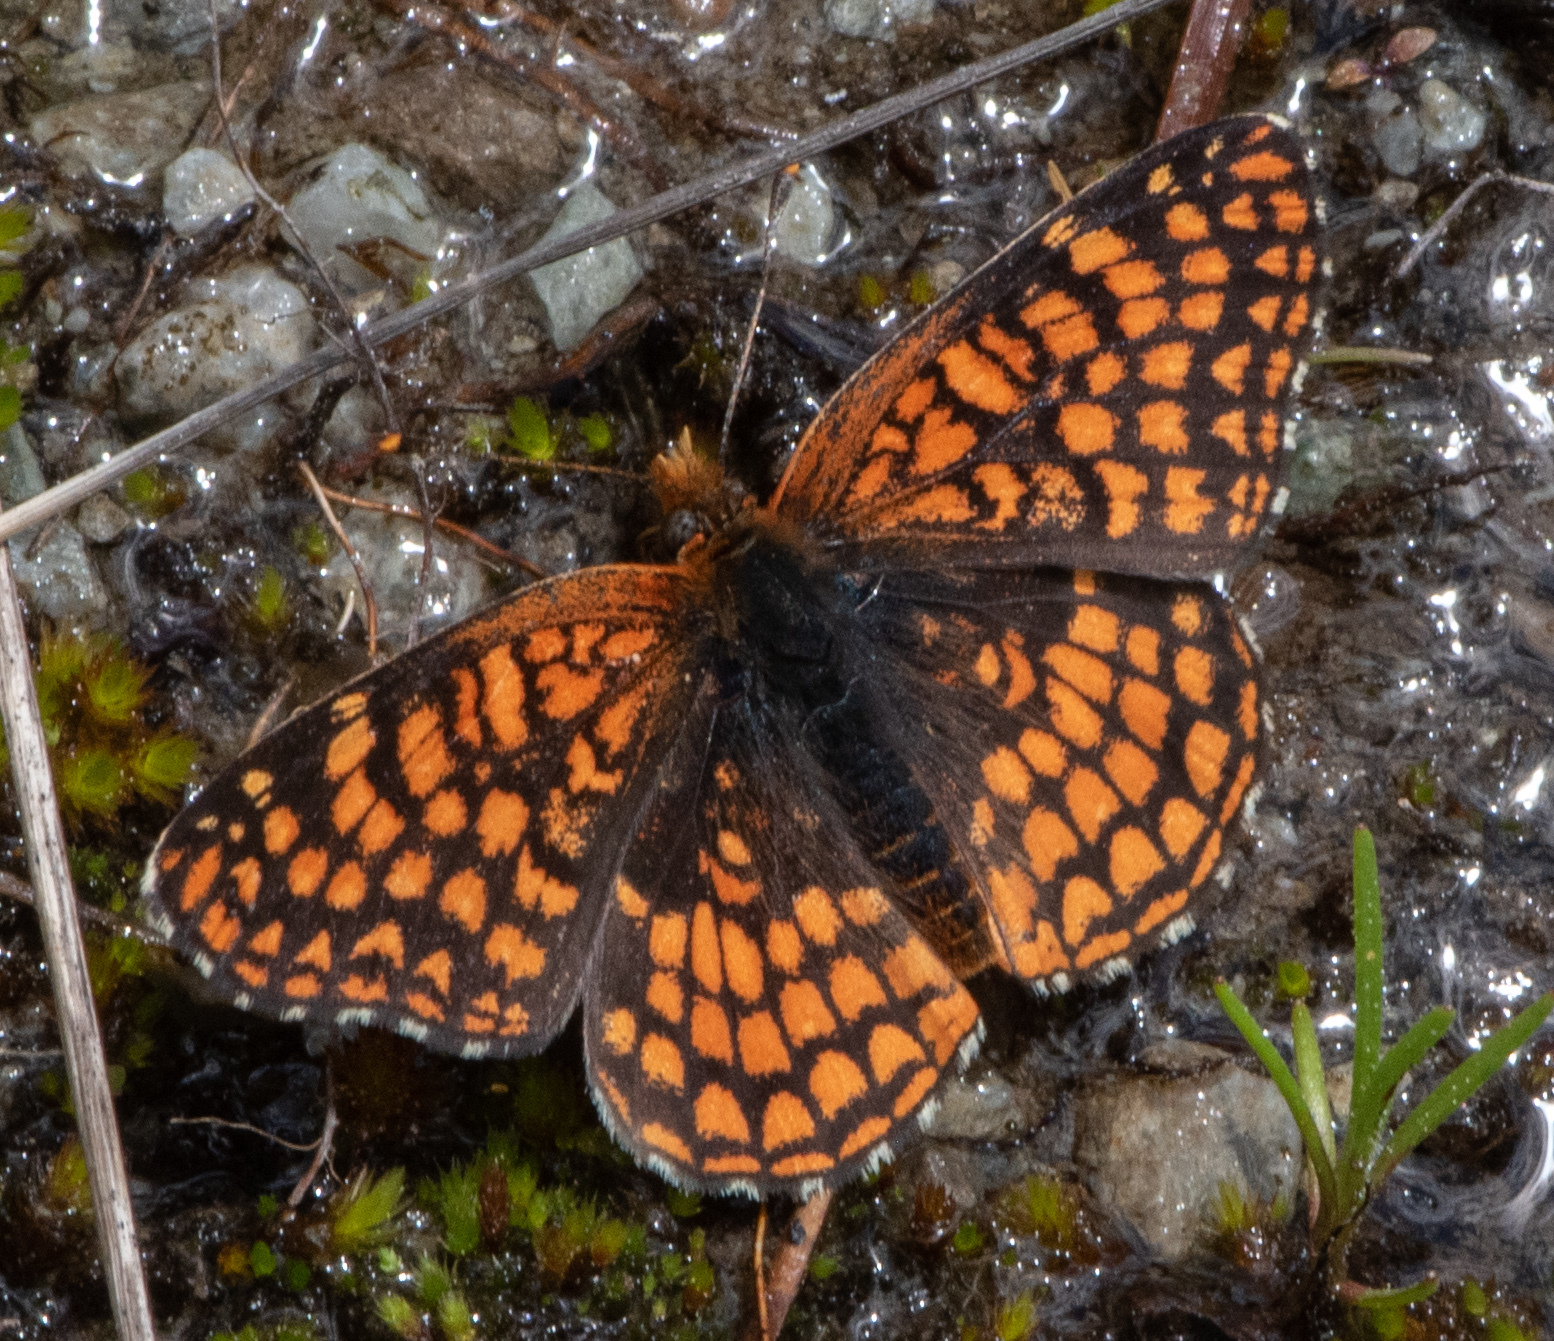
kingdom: Animalia
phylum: Arthropoda
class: Insecta
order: Lepidoptera
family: Nymphalidae
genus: Chlosyne
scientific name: Chlosyne palla
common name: Northern checkerspot
